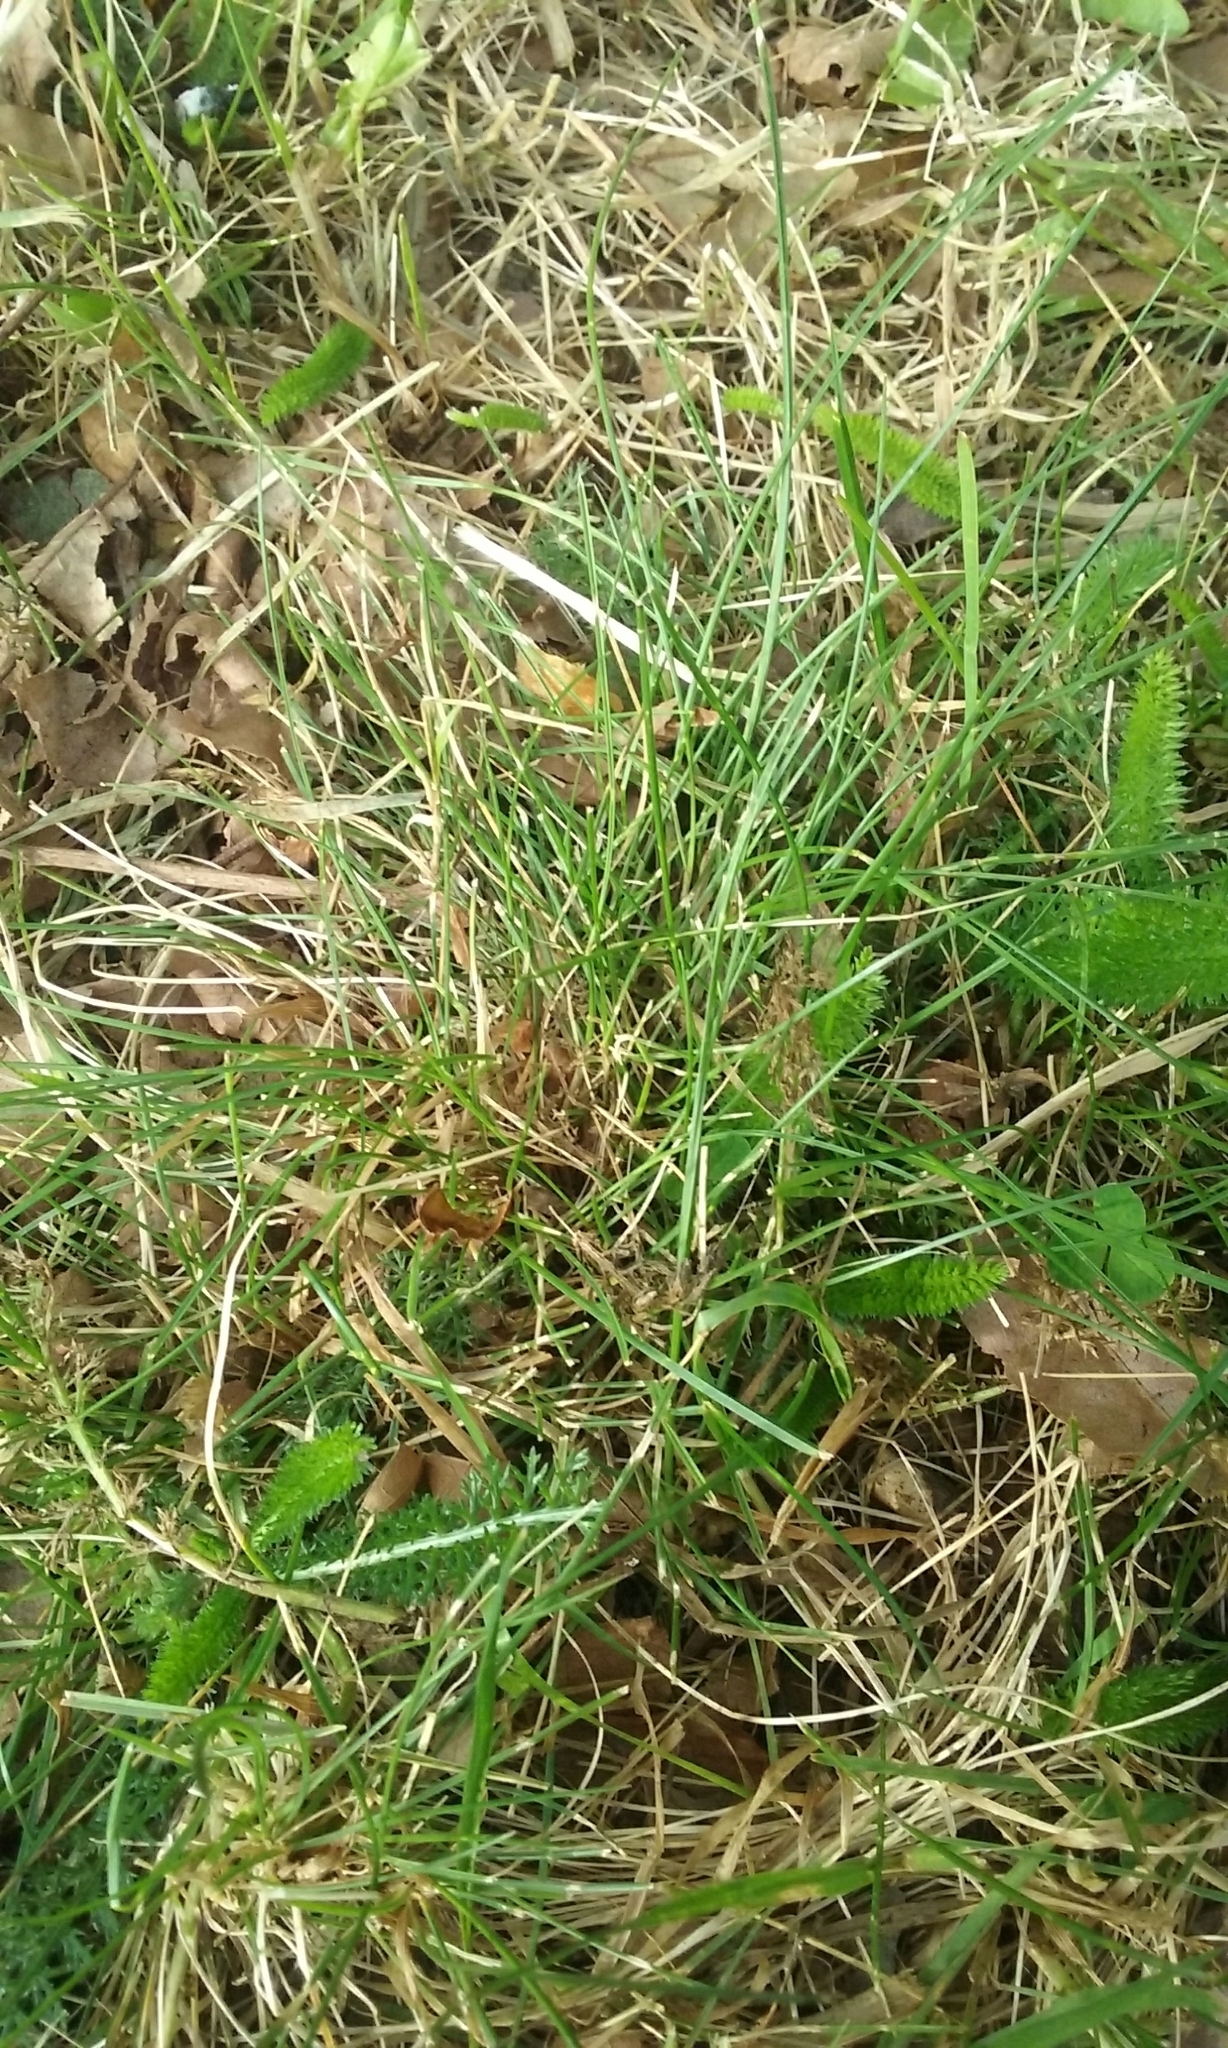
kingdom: Plantae
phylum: Tracheophyta
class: Liliopsida
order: Poales
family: Poaceae
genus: Festuca
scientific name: Festuca rubra
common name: Red fescue
